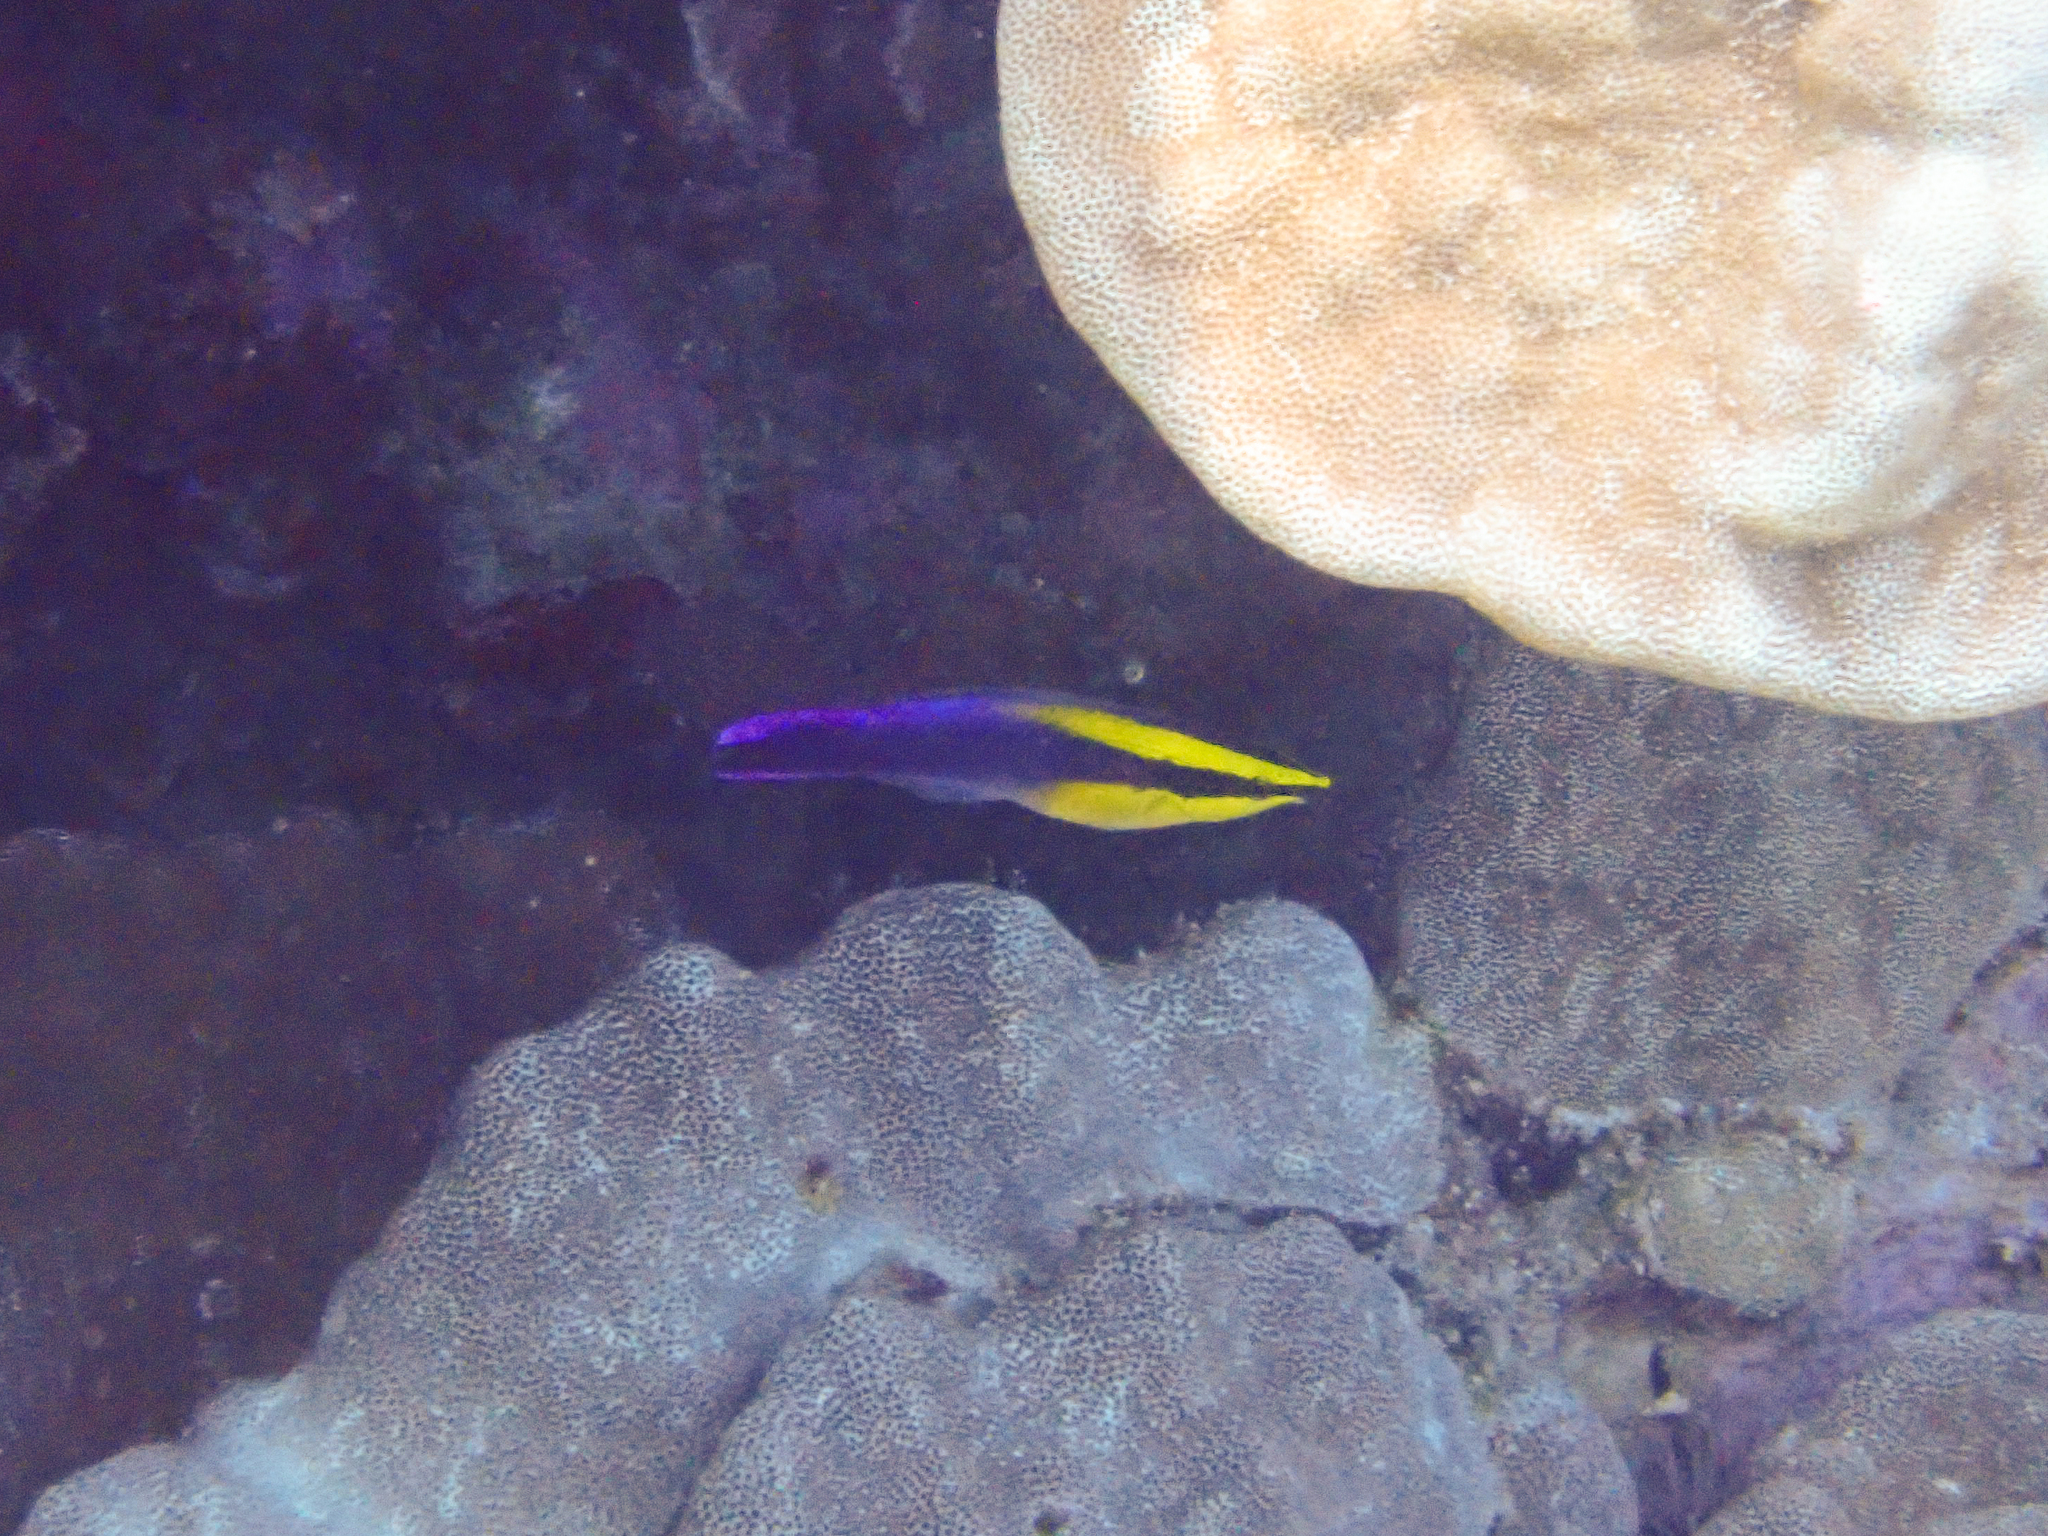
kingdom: Animalia
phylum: Chordata
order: Perciformes
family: Labridae
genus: Labroides
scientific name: Labroides phthirophagus
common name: Cleaner wrasse
